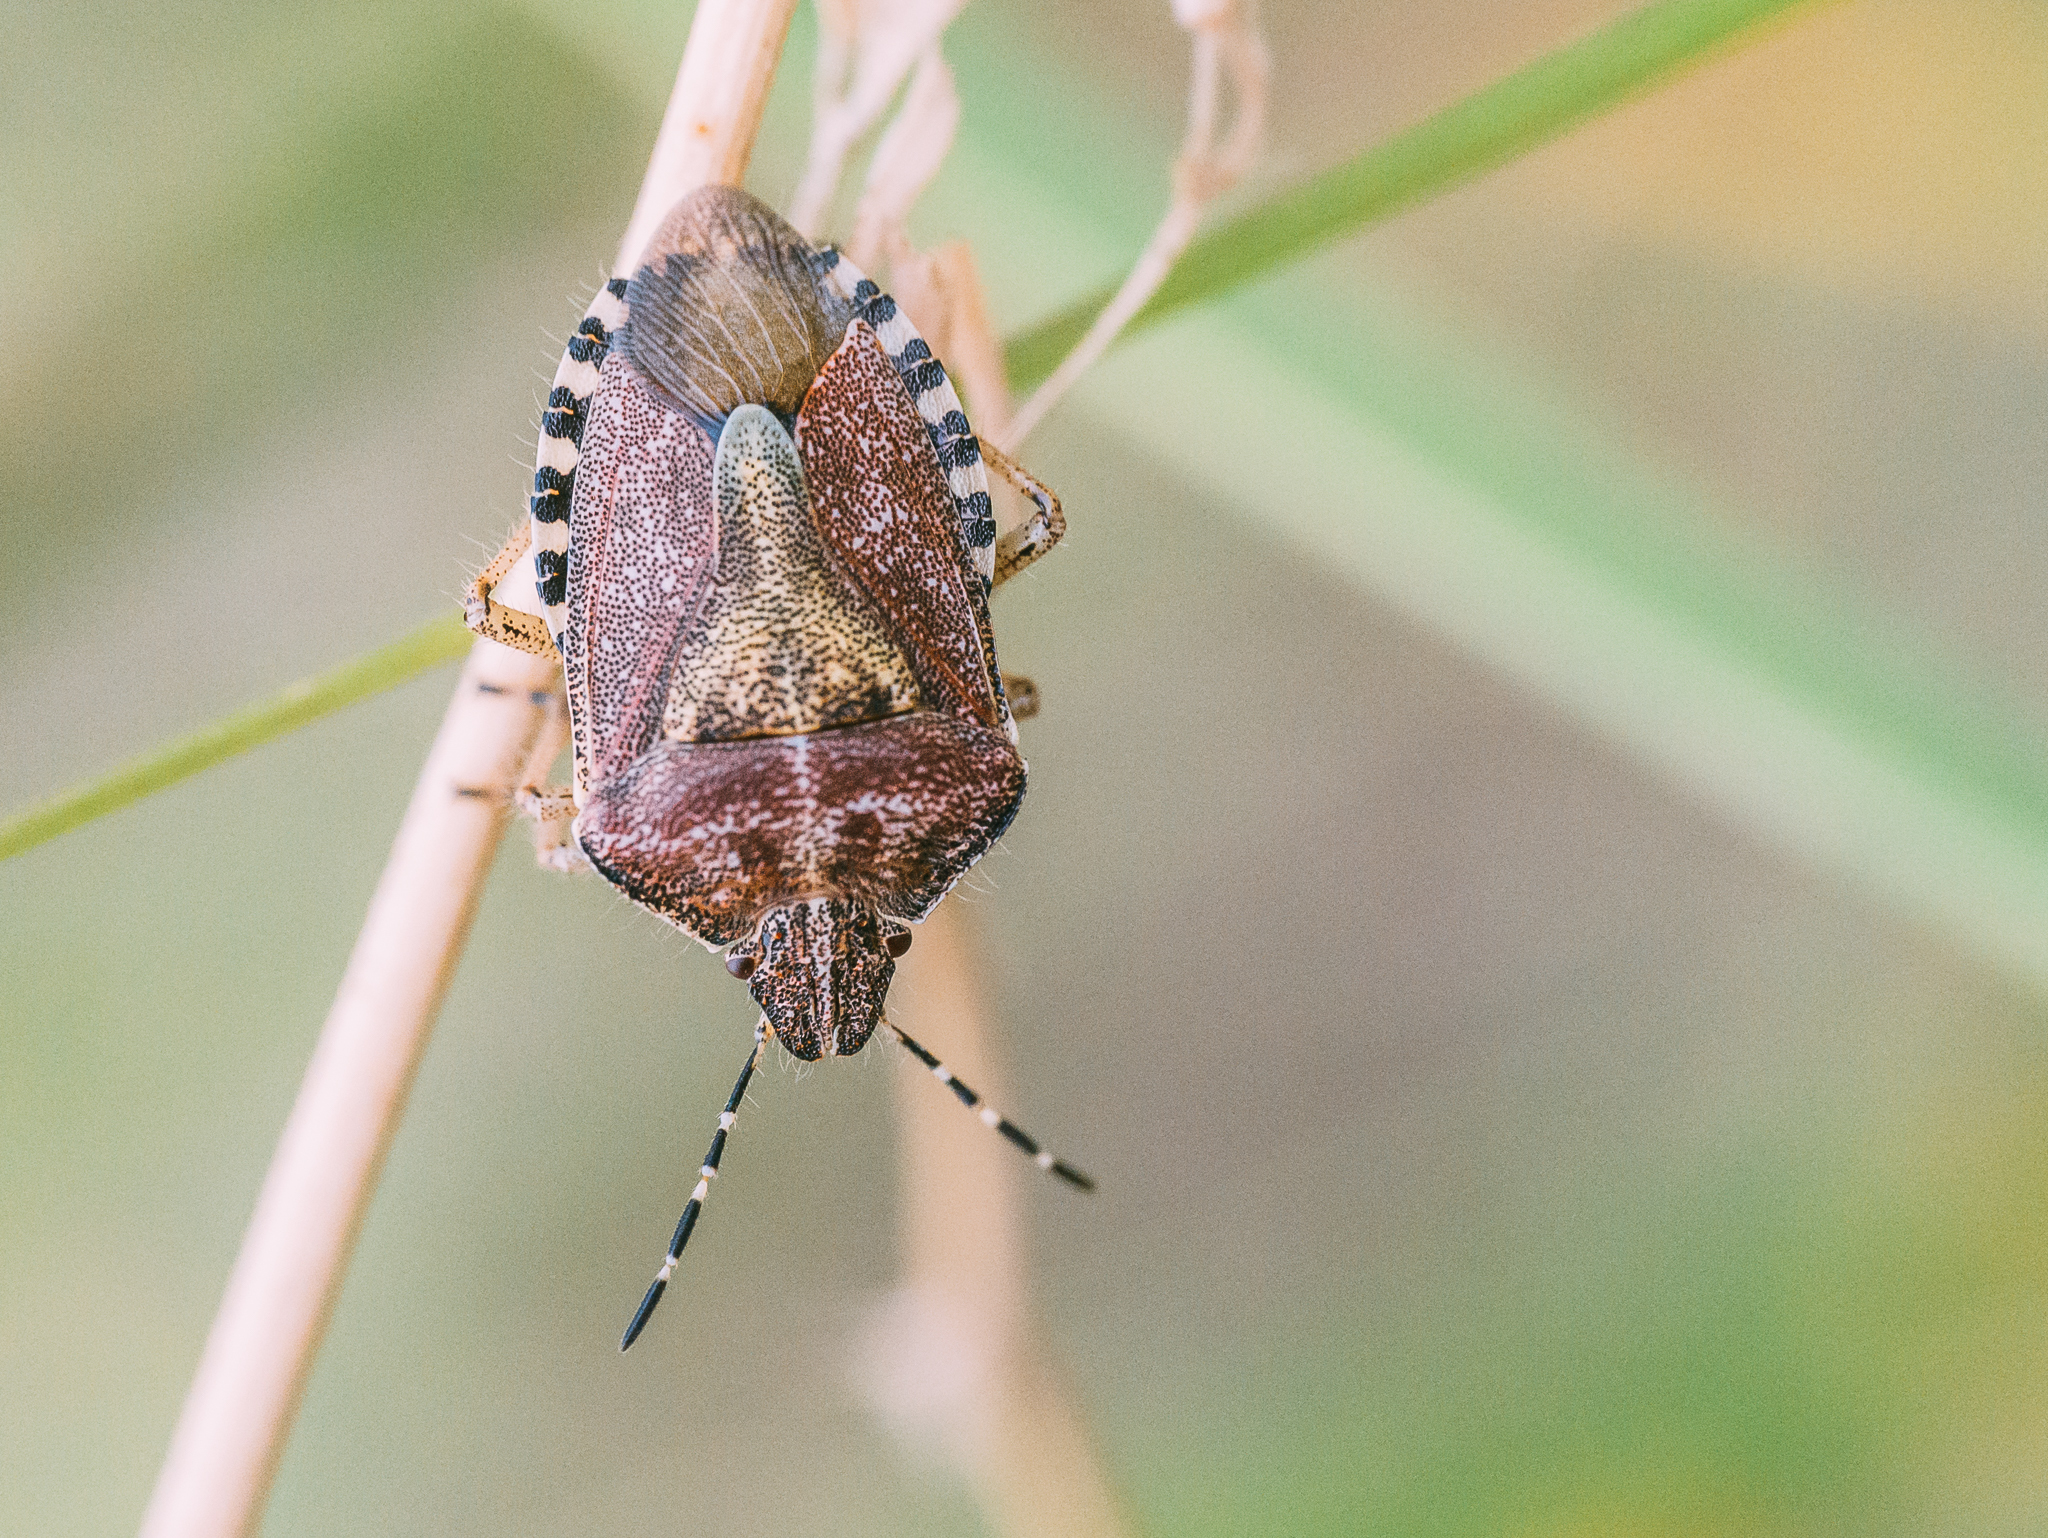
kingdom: Animalia
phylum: Arthropoda
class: Insecta
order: Hemiptera
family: Pentatomidae
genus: Dolycoris
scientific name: Dolycoris baccarum
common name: Sloe bug
